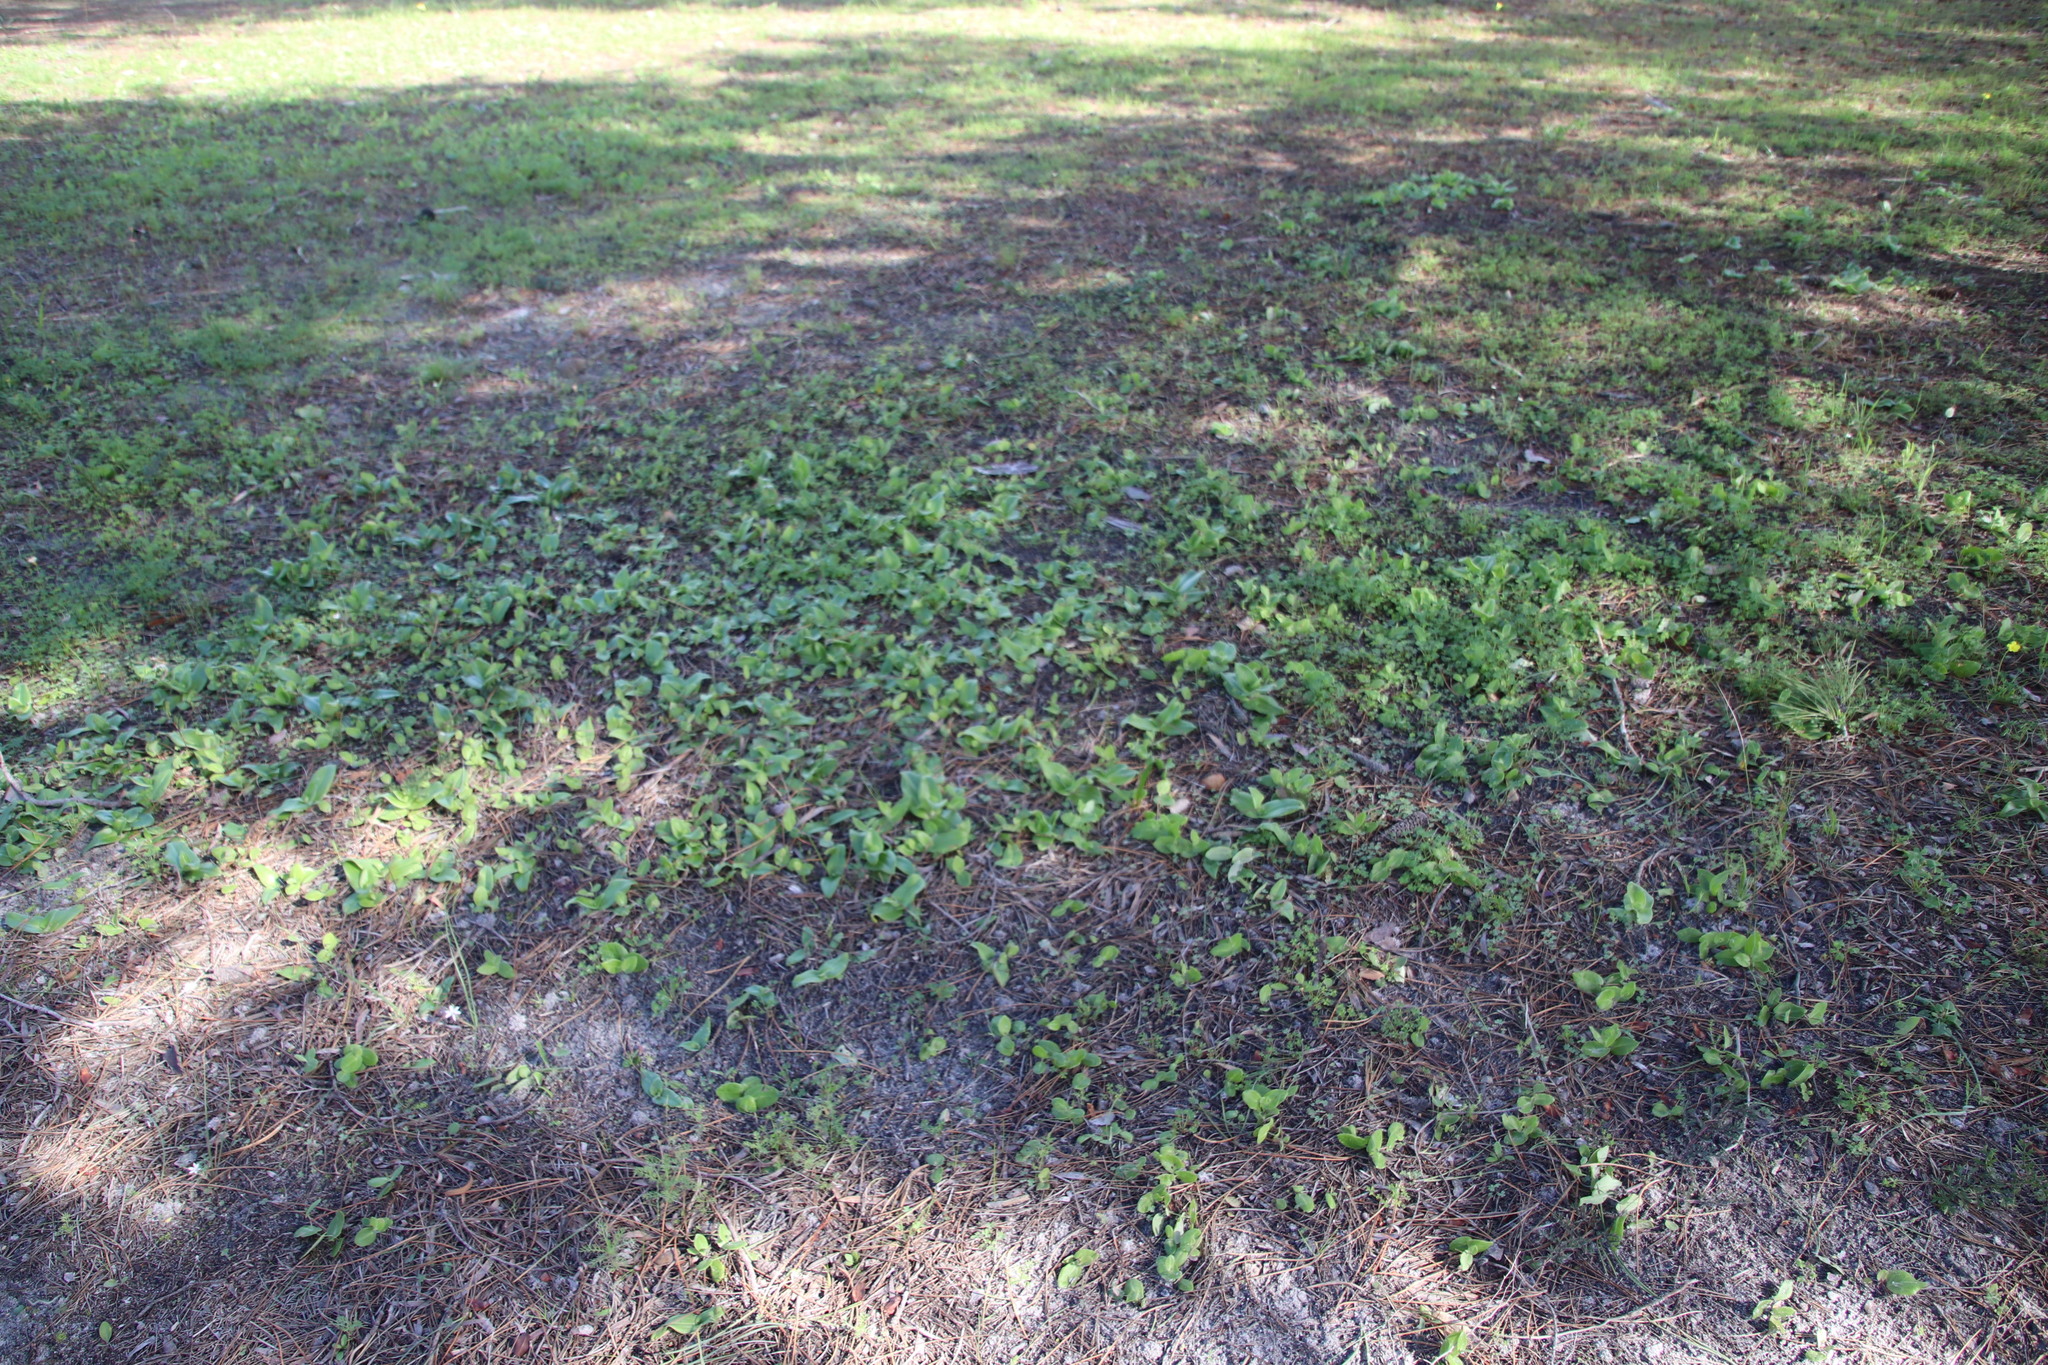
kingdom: Plantae
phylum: Tracheophyta
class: Liliopsida
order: Asparagales
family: Orchidaceae
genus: Satyrium
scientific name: Satyrium odorum
